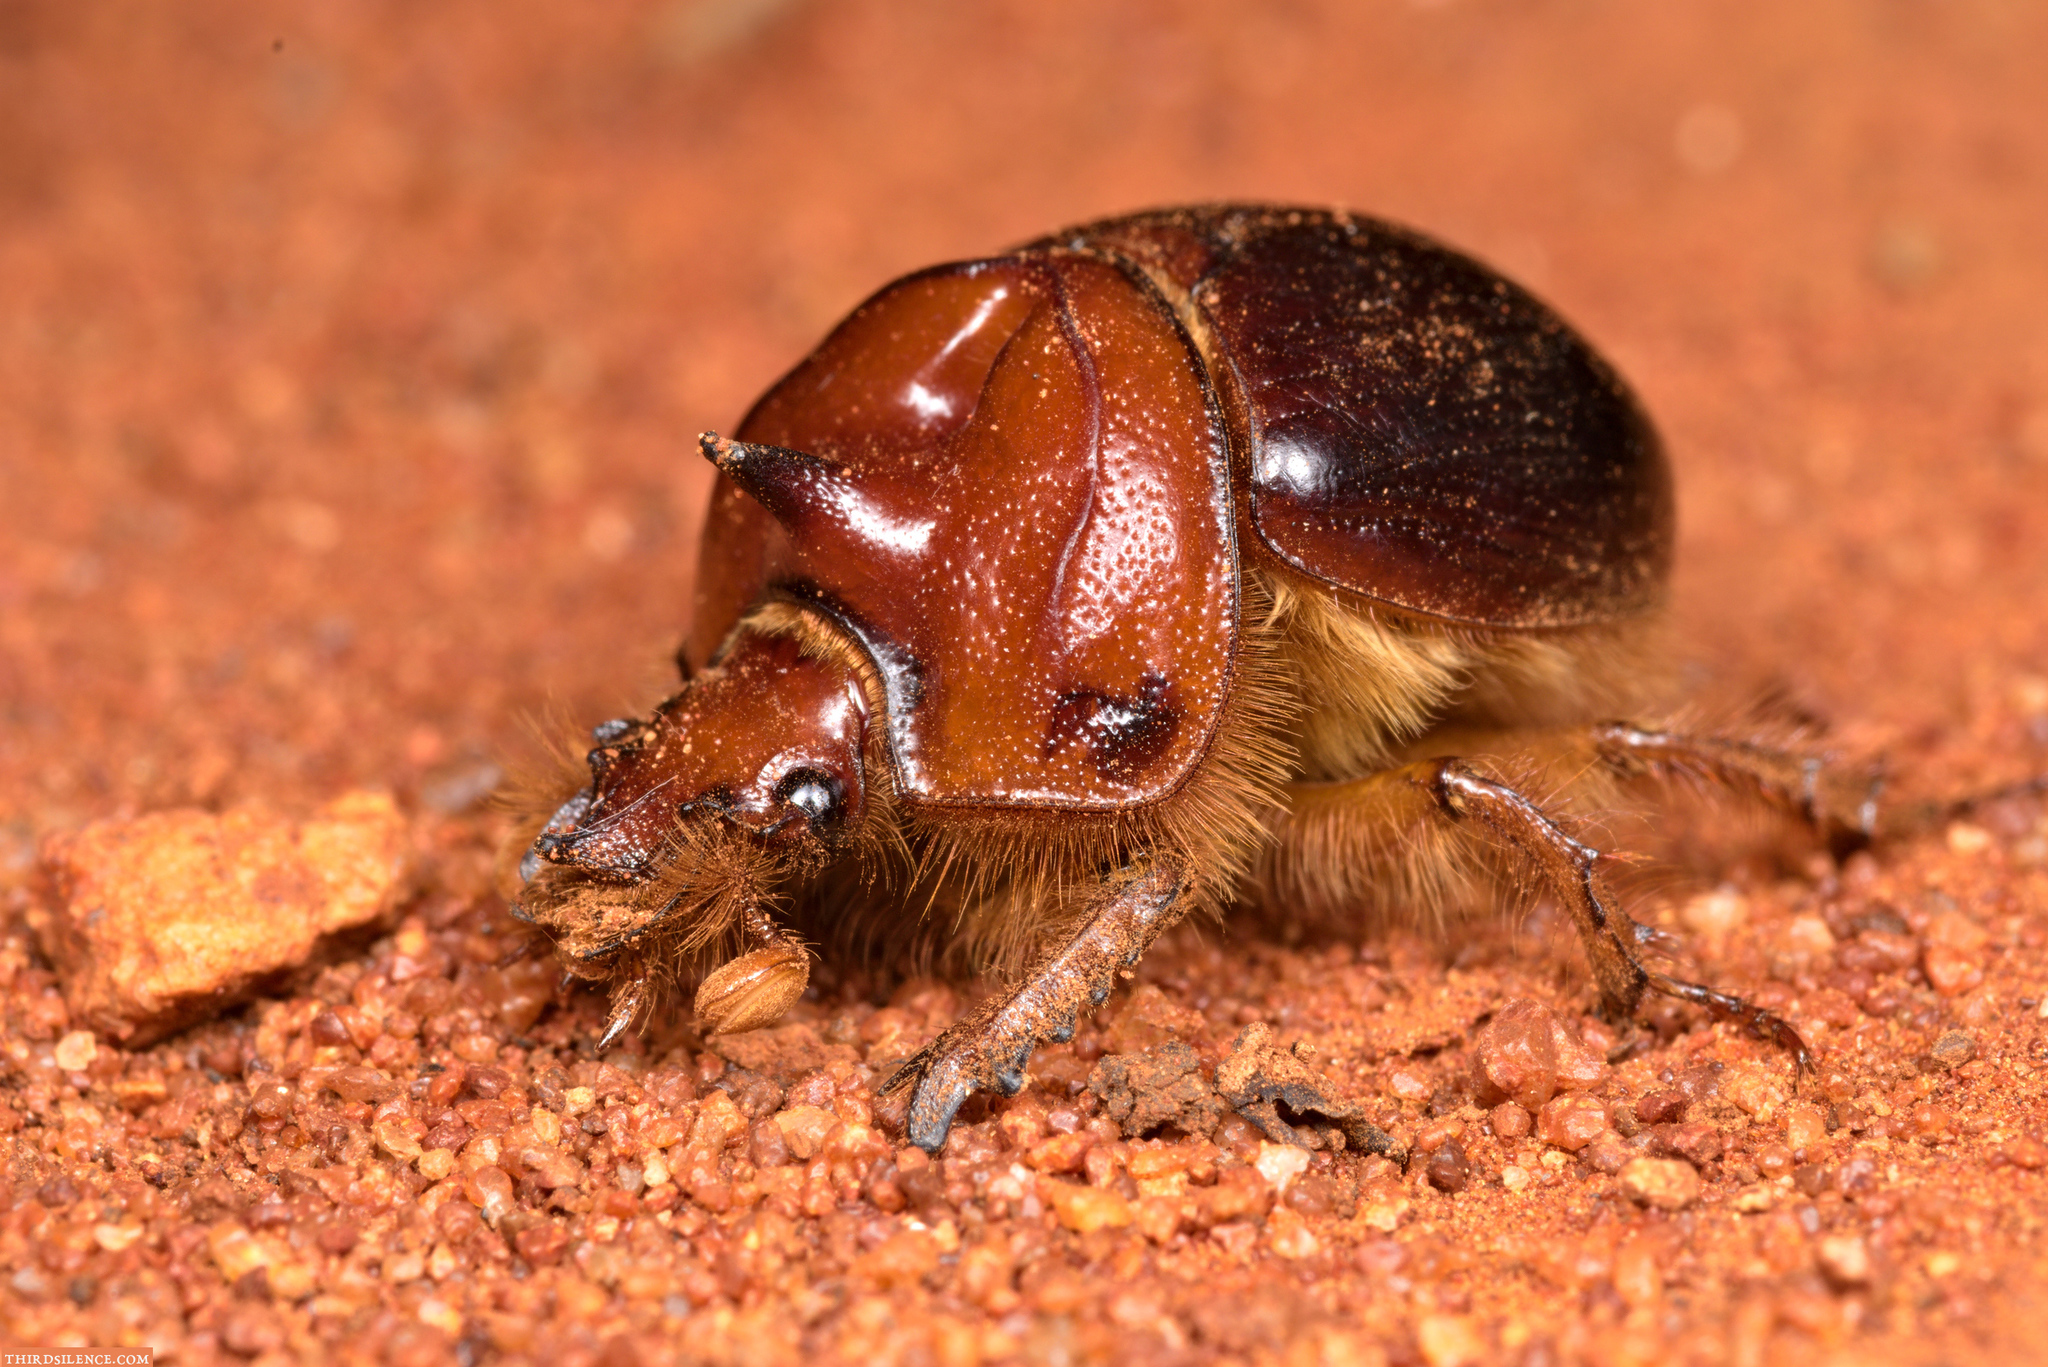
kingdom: Animalia
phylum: Arthropoda
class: Insecta
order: Coleoptera
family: Geotrupidae
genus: Bolborhachium
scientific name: Bolborhachium inclinatum
